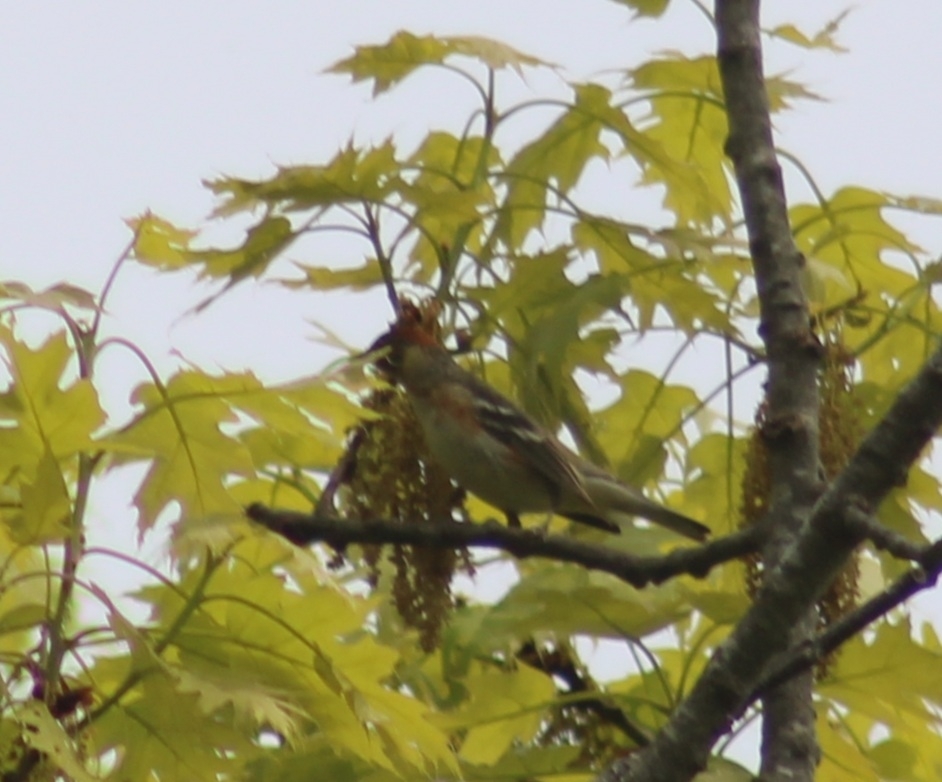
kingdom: Animalia
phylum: Chordata
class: Aves
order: Passeriformes
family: Parulidae
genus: Setophaga
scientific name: Setophaga castanea
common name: Bay-breasted warbler
